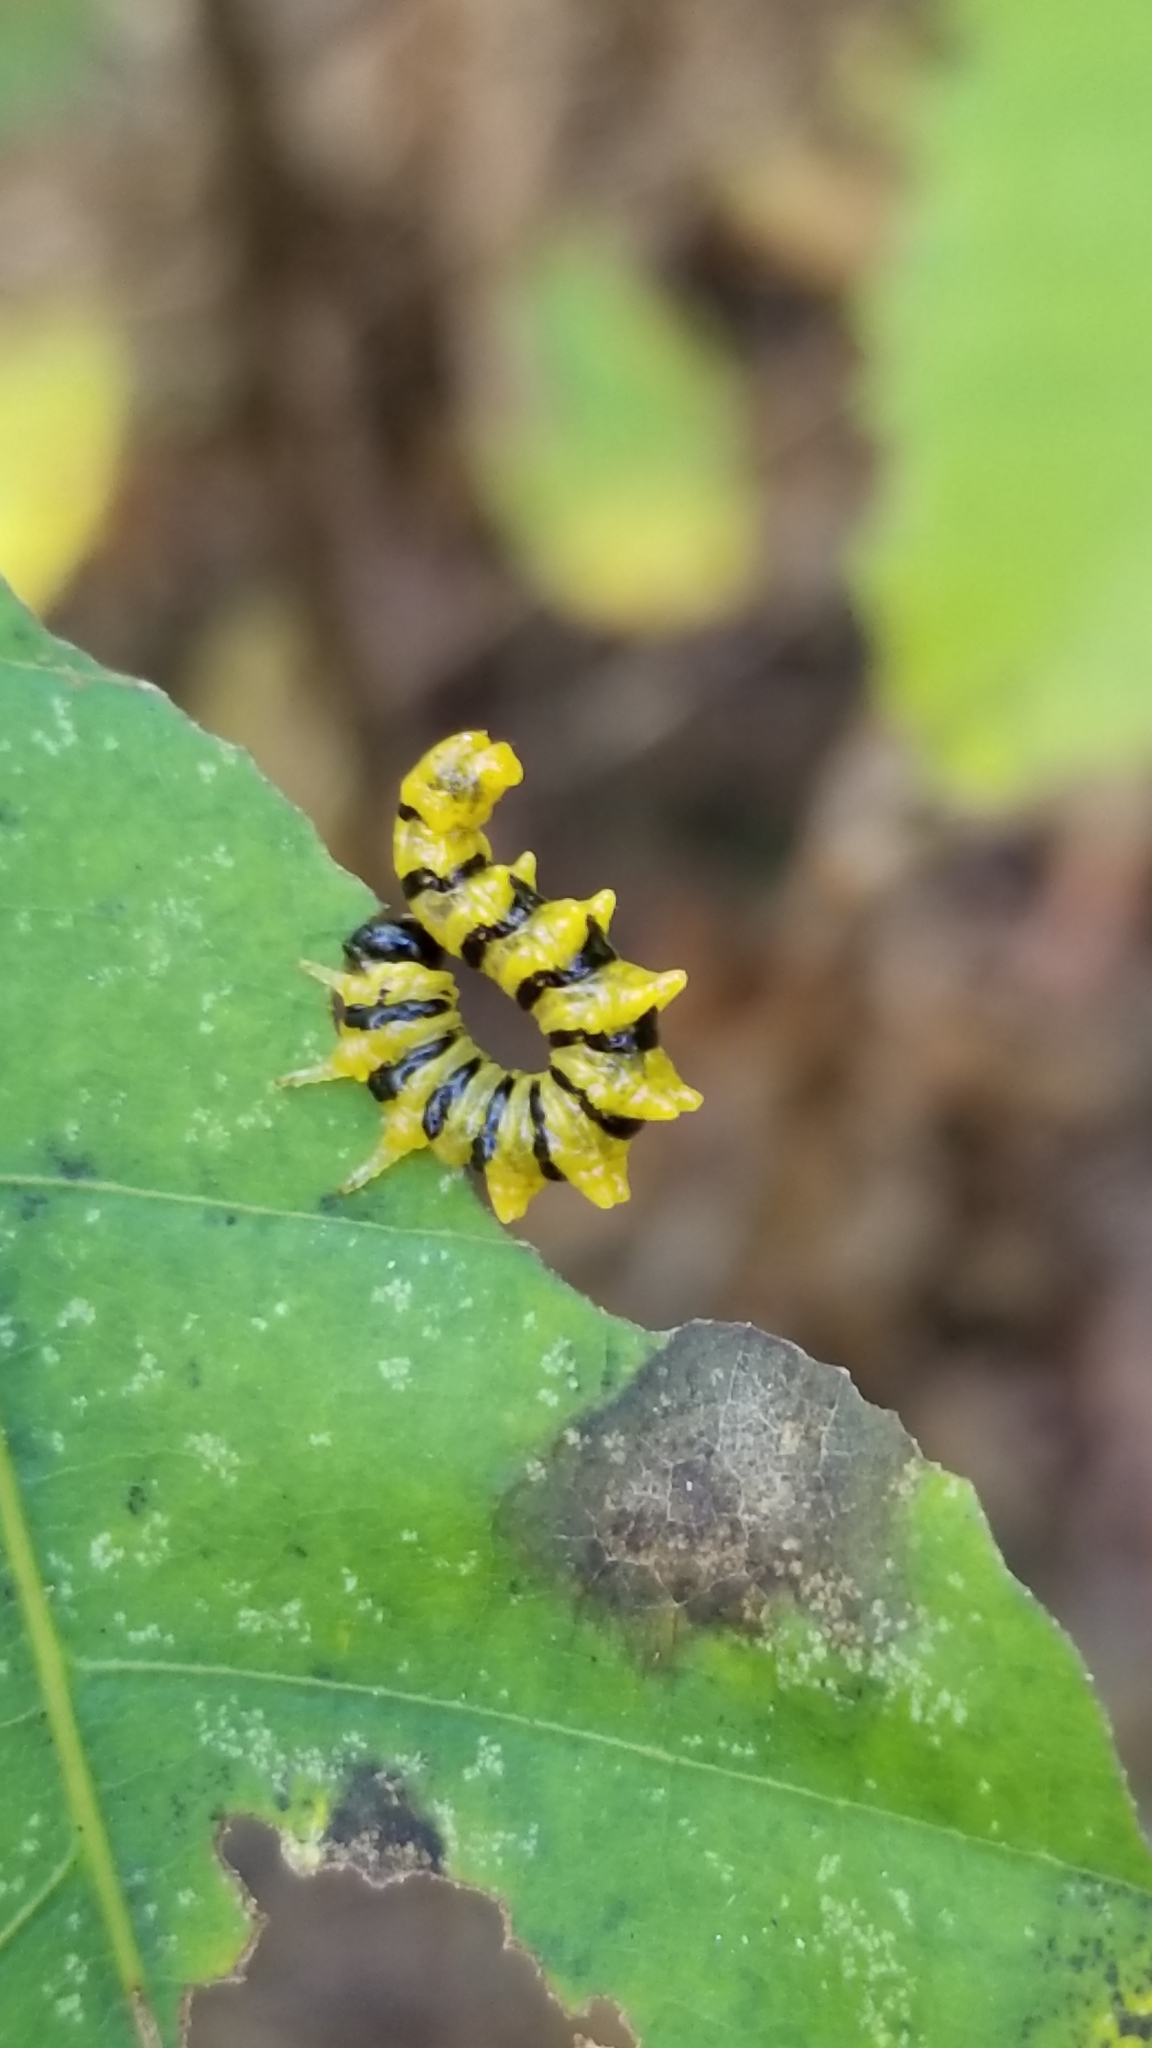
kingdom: Animalia
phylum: Arthropoda
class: Insecta
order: Hymenoptera
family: Tenthredinidae
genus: Nematus
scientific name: Nematus
